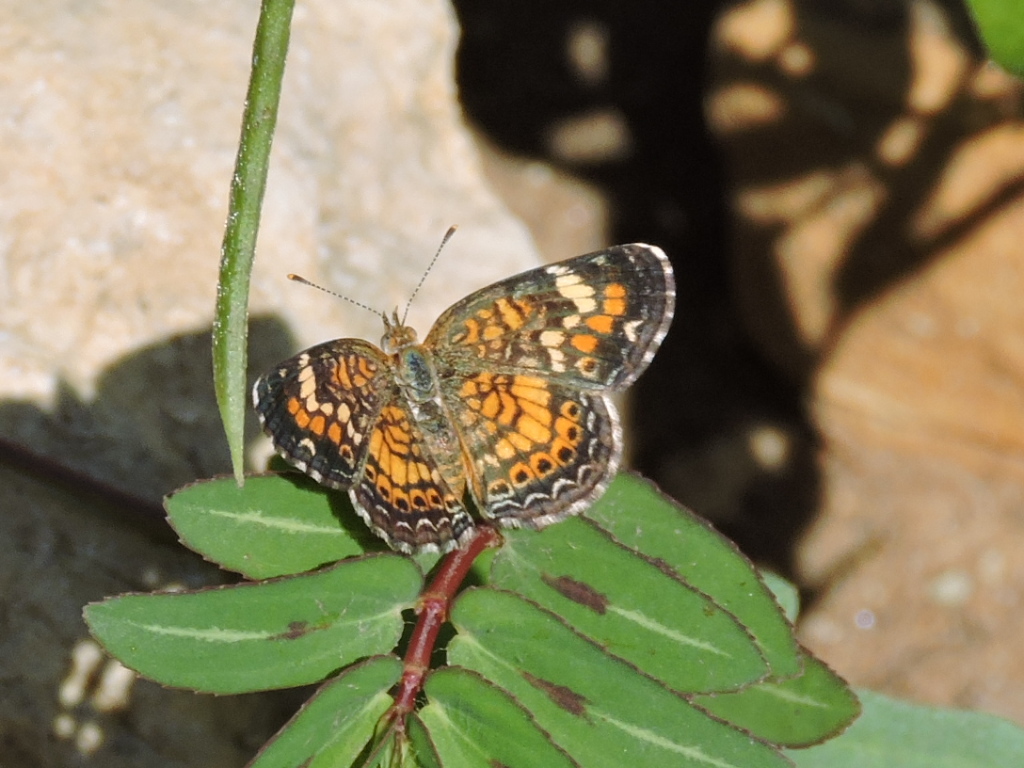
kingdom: Animalia
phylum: Arthropoda
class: Insecta
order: Lepidoptera
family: Nymphalidae
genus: Phyciodes
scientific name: Phyciodes phaon
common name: Phaon crescent
